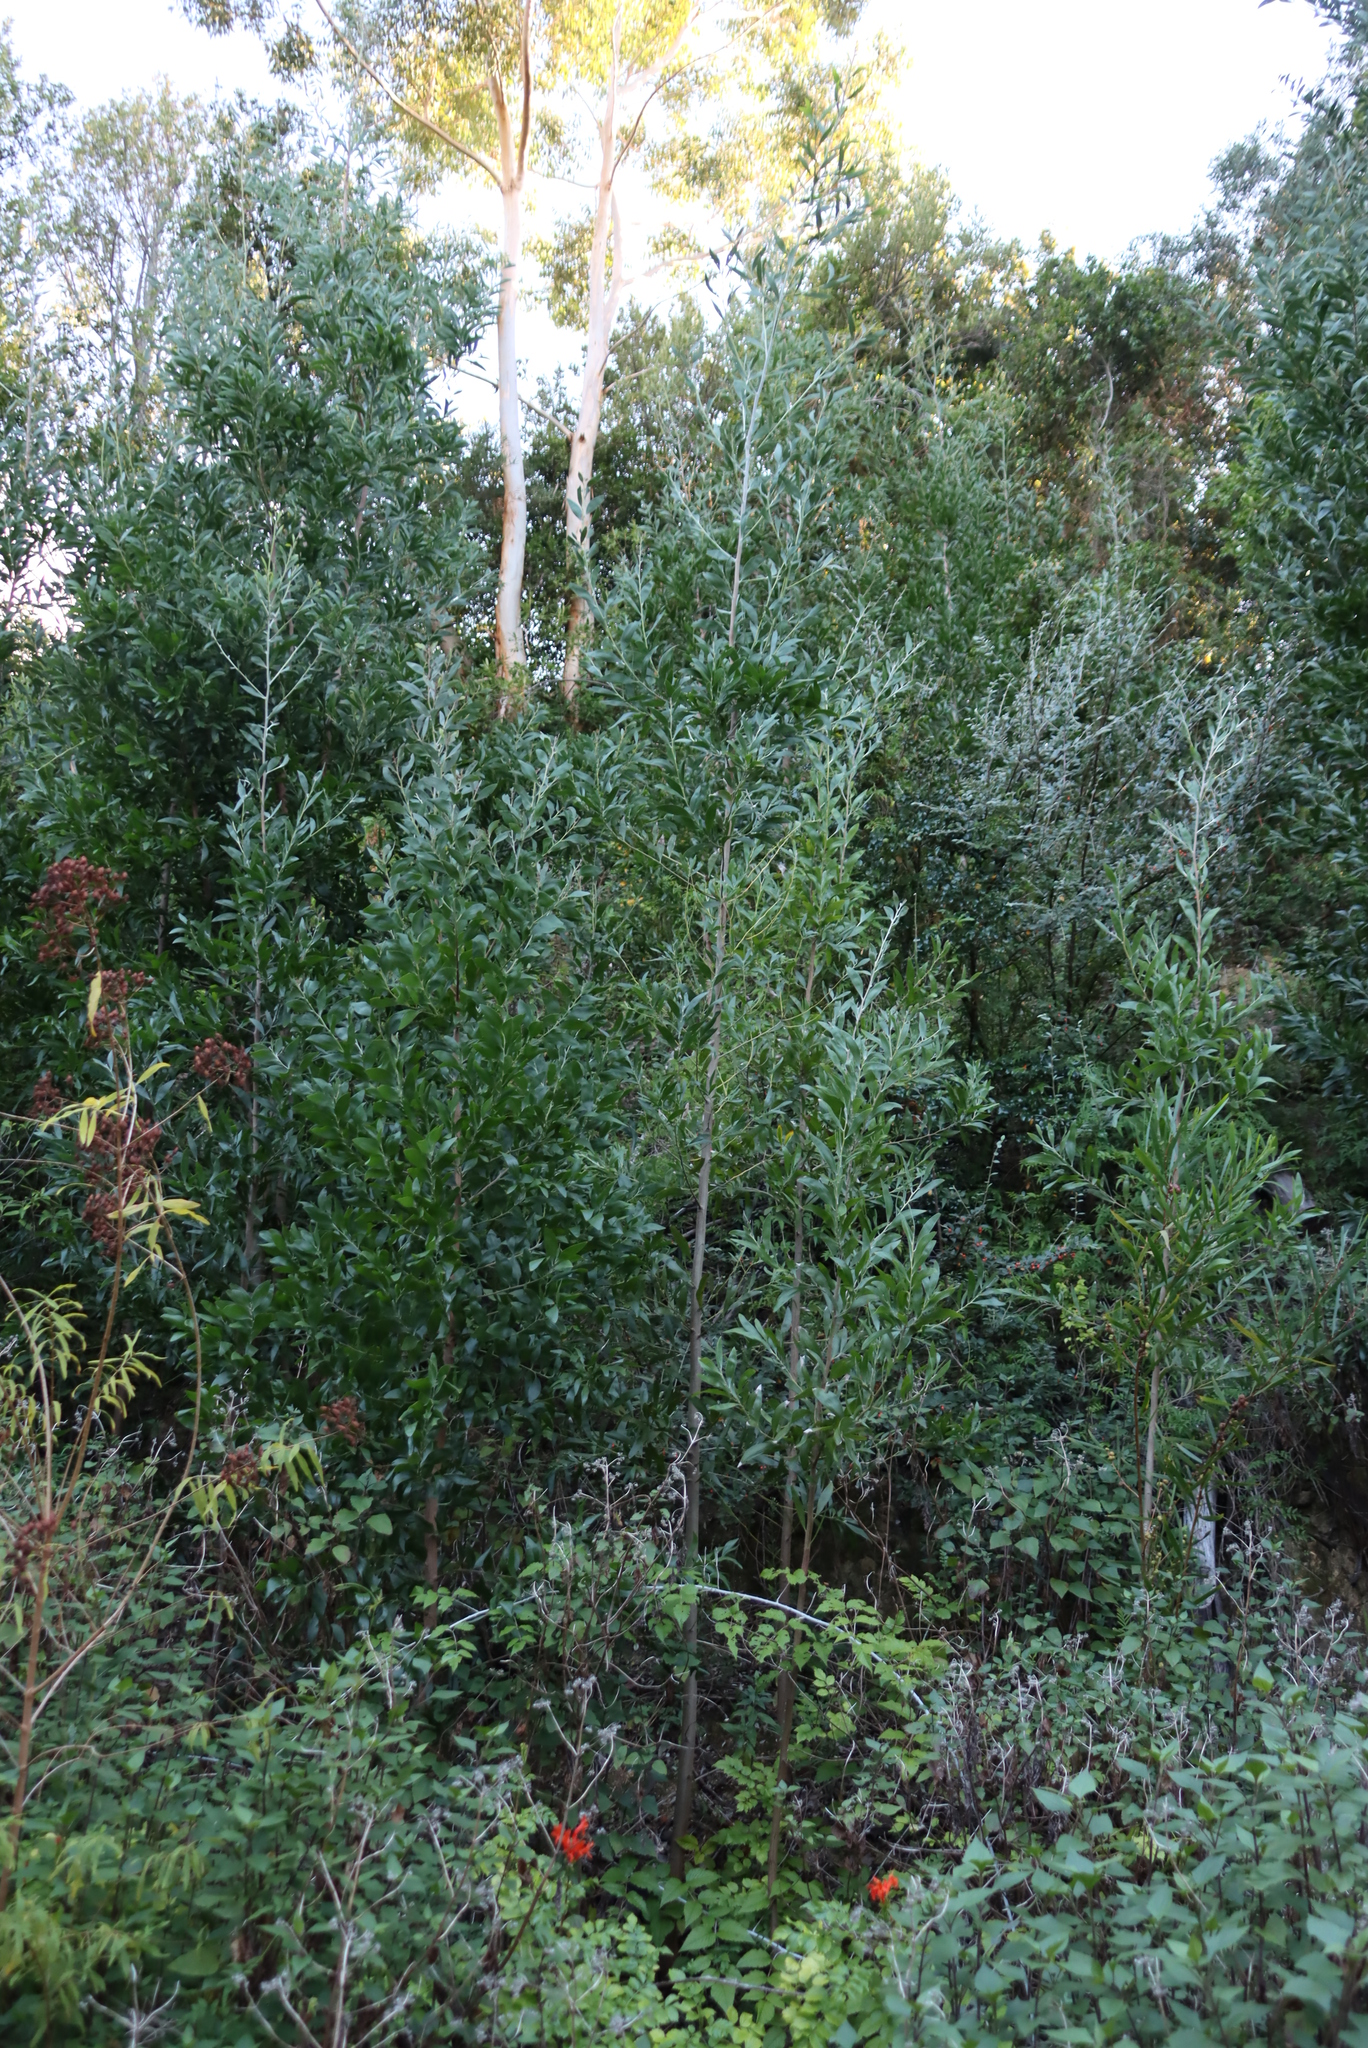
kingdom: Plantae
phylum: Tracheophyta
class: Magnoliopsida
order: Fabales
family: Fabaceae
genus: Acacia
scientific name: Acacia melanoxylon
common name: Blackwood
